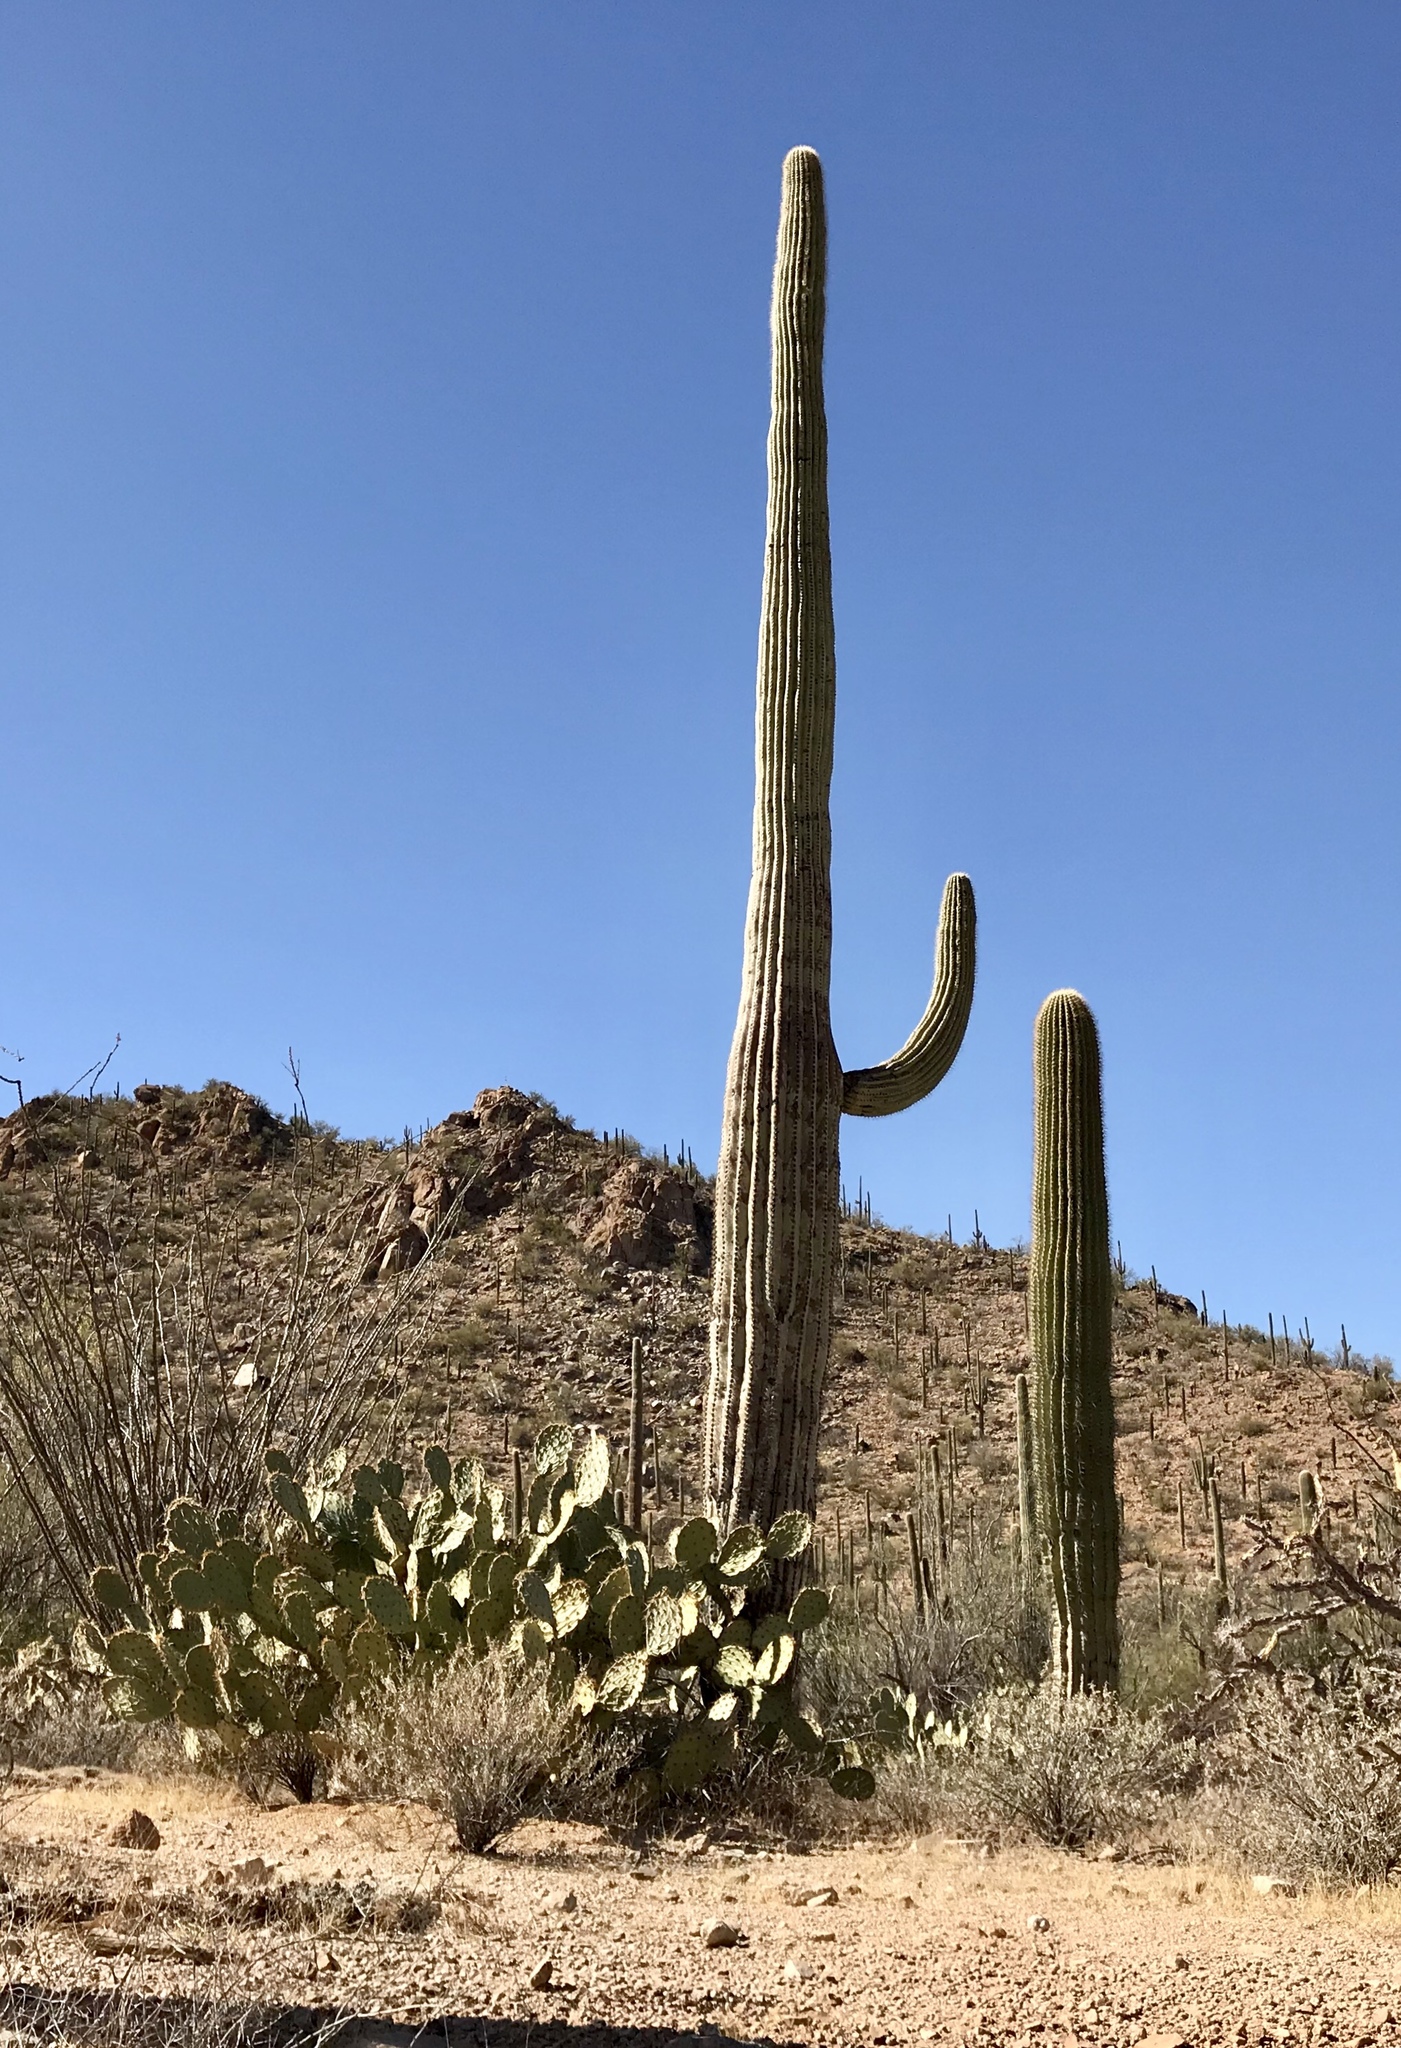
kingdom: Plantae
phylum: Tracheophyta
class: Magnoliopsida
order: Caryophyllales
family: Cactaceae
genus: Carnegiea
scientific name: Carnegiea gigantea
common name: Saguaro
